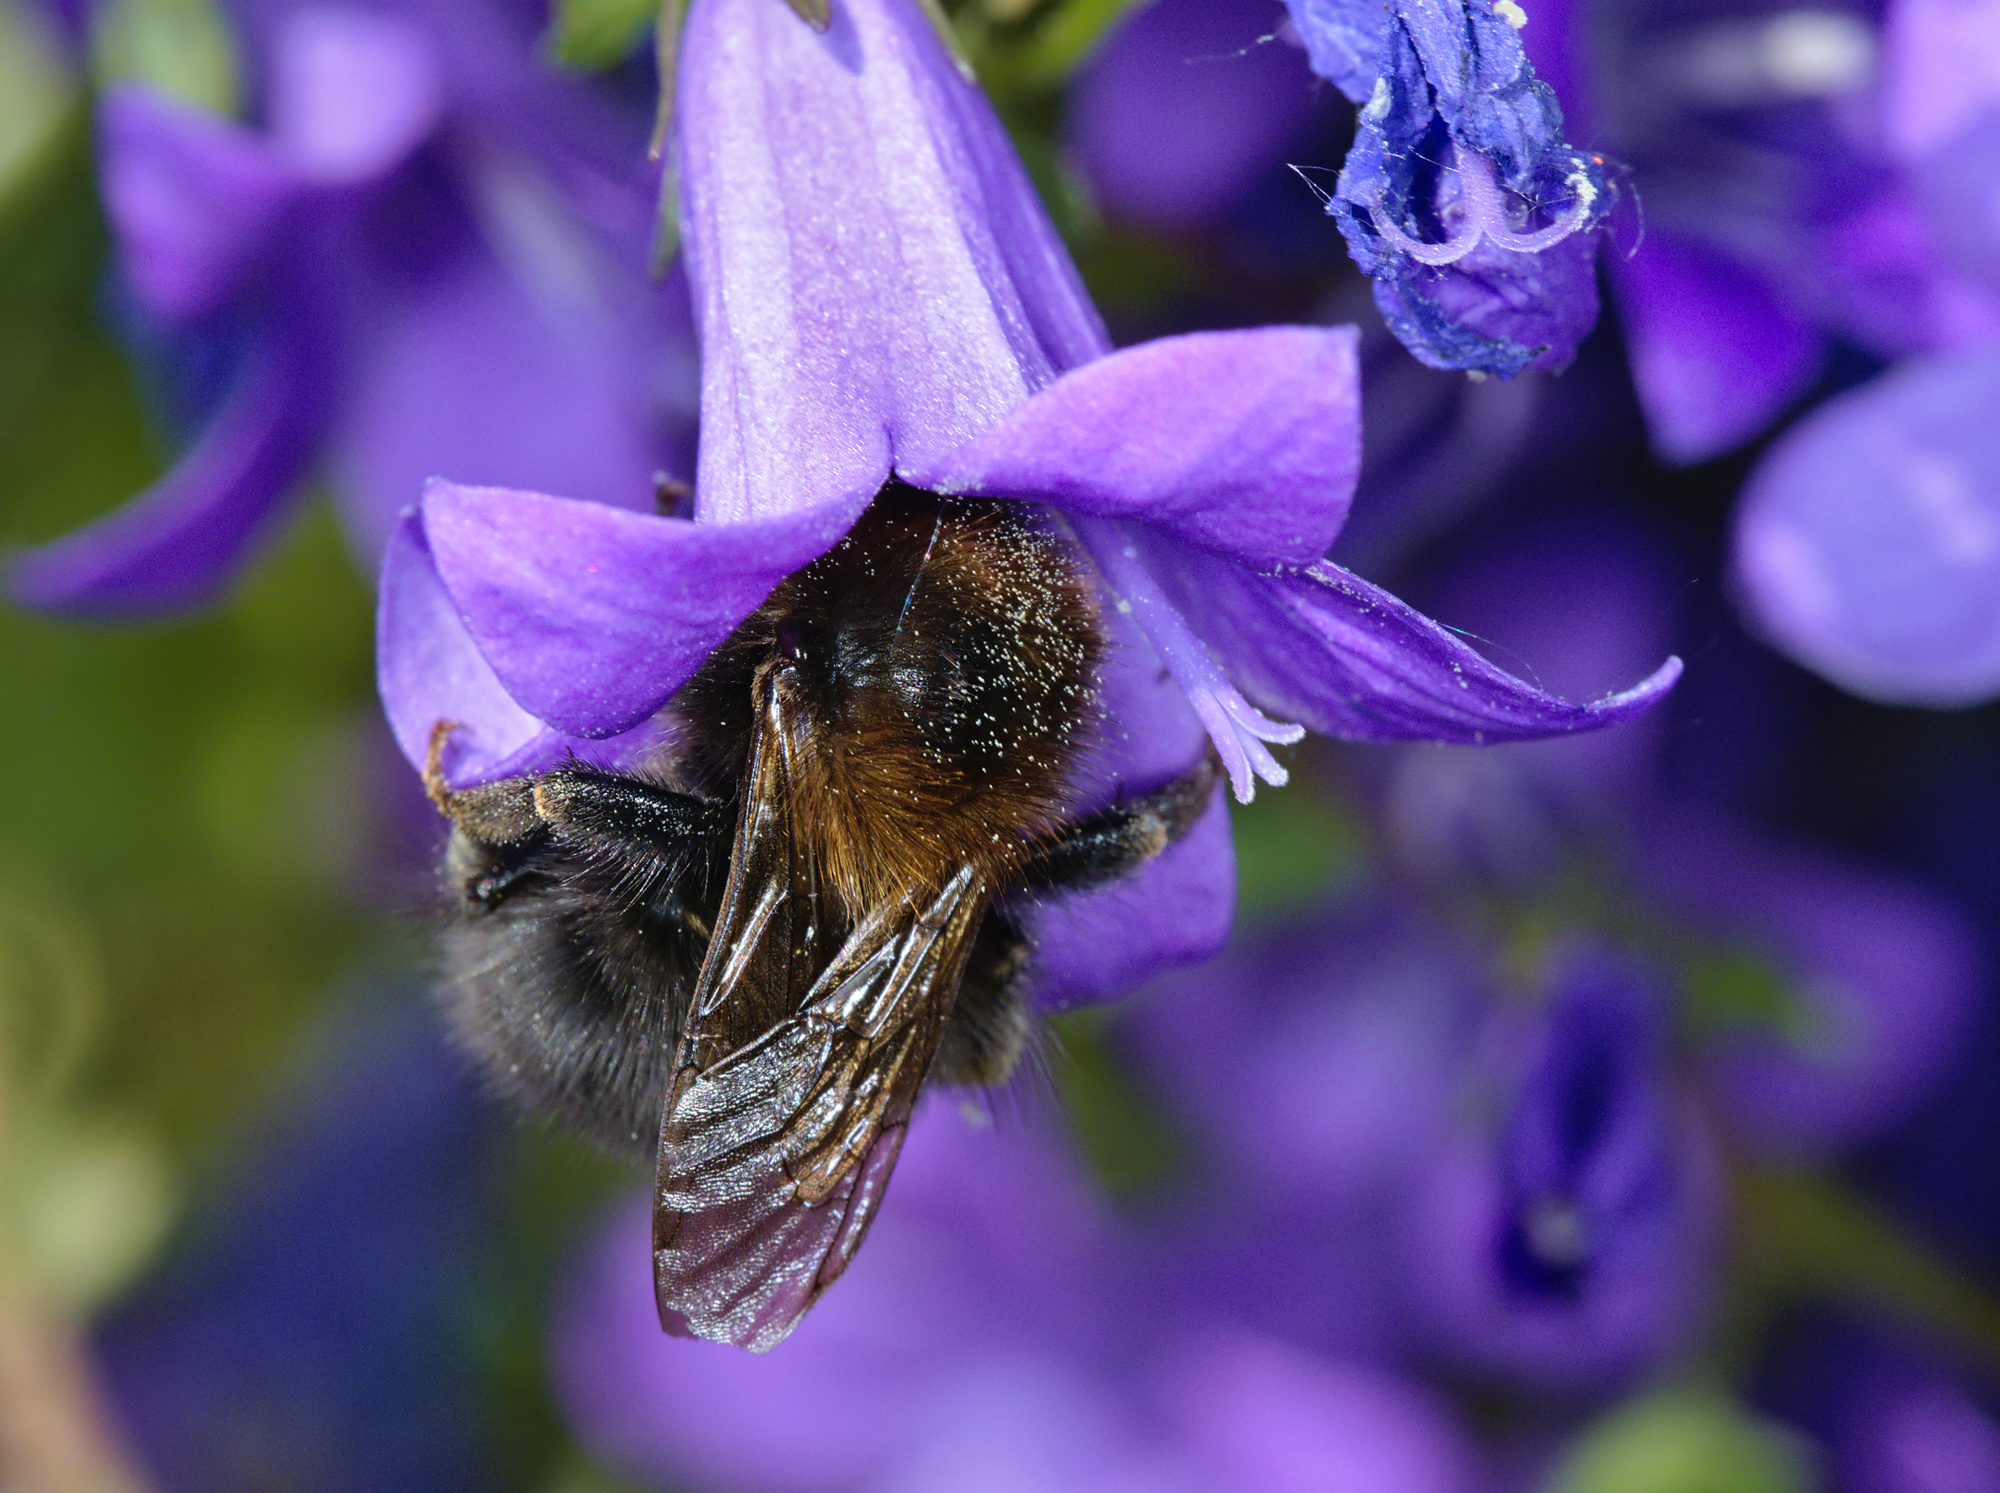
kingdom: Animalia
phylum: Arthropoda
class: Insecta
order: Hymenoptera
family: Apidae
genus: Bombus
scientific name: Bombus hypnorum
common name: New garden bumblebee
